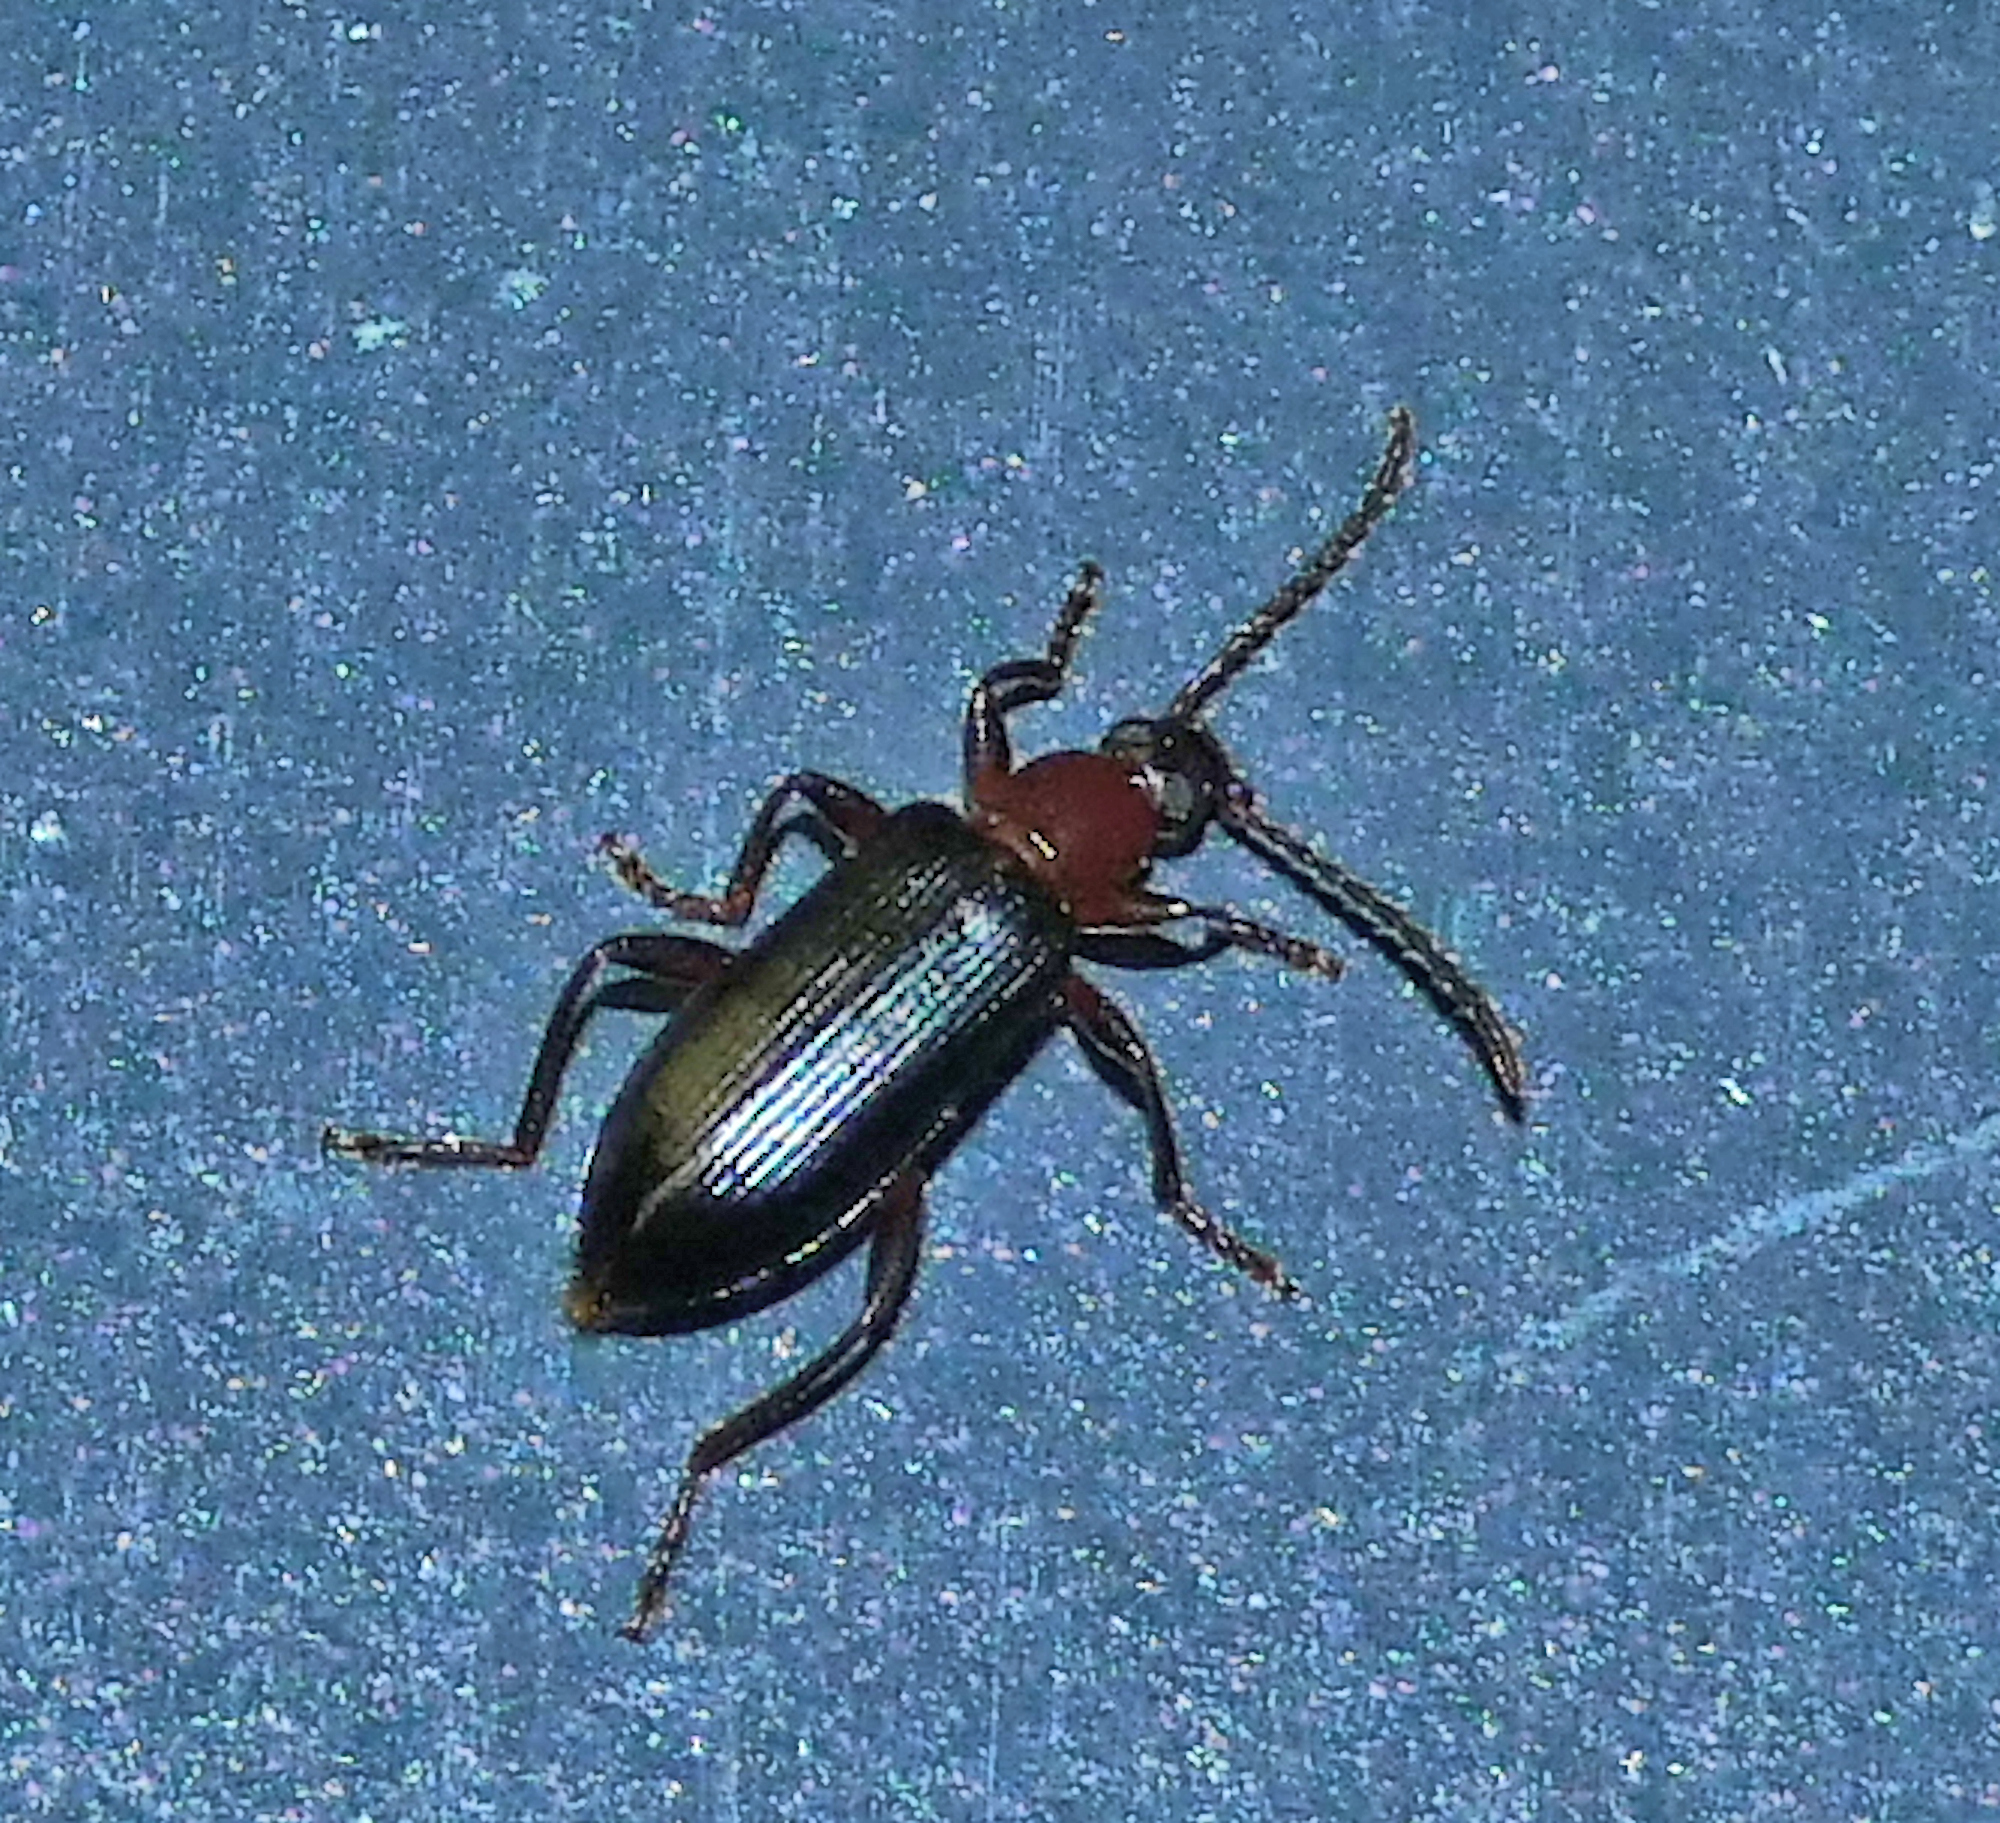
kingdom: Animalia
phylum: Arthropoda
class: Insecta
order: Coleoptera
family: Tenebrionidae
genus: Statira
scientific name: Statira pluripunctata
